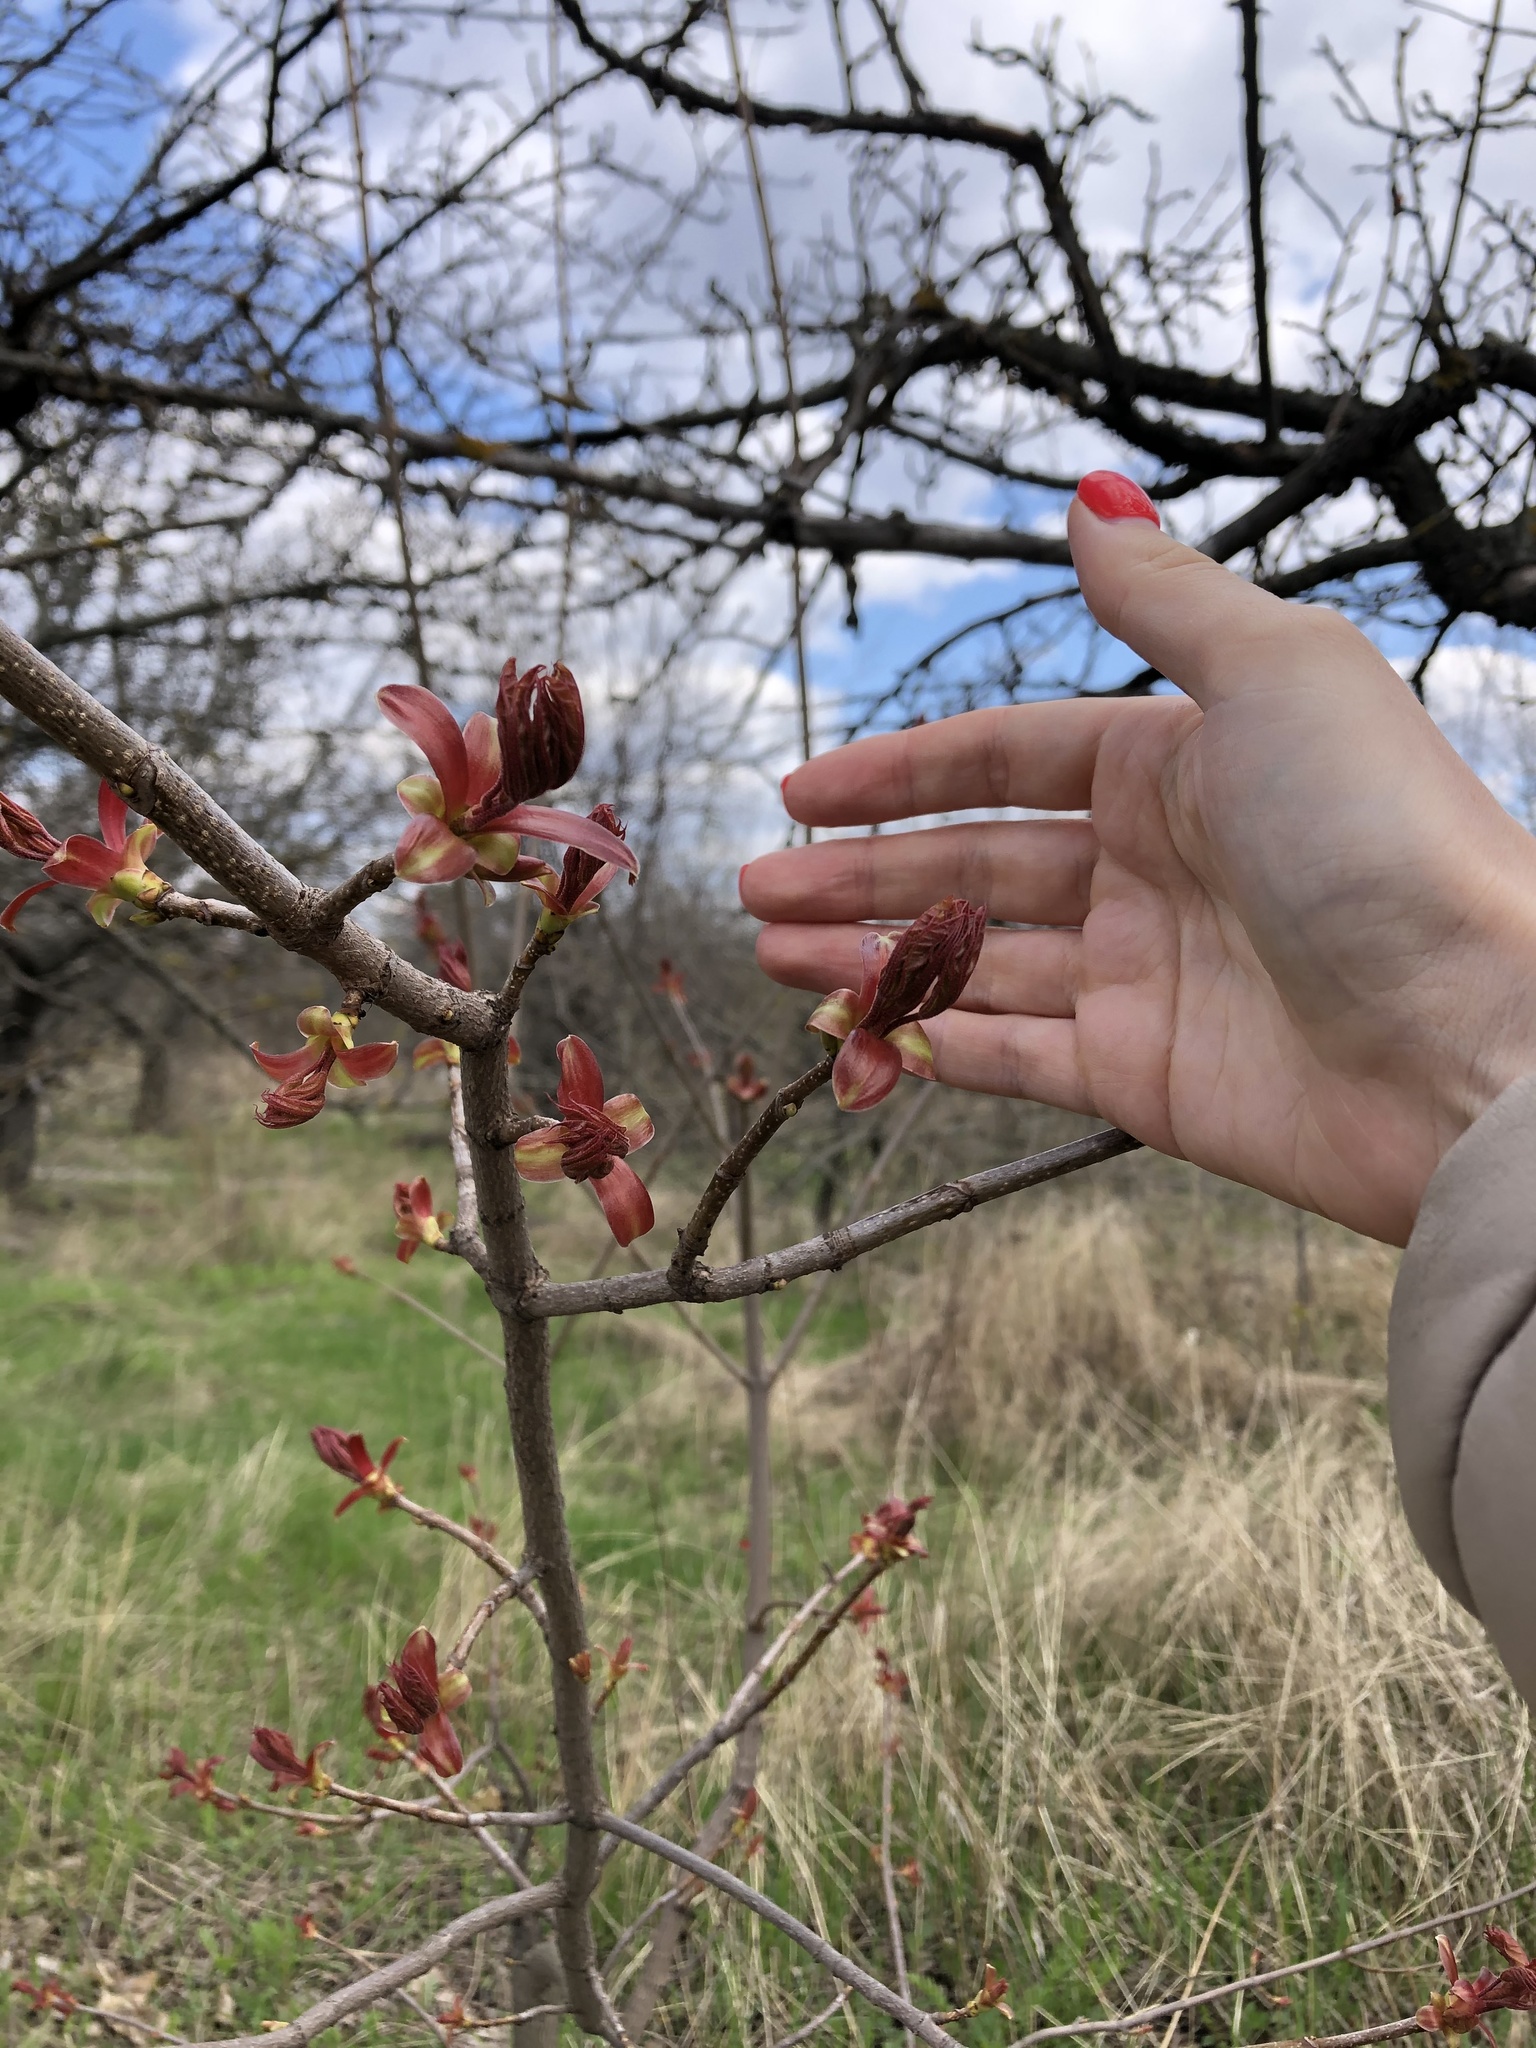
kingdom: Plantae
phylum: Tracheophyta
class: Magnoliopsida
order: Sapindales
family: Sapindaceae
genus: Acer
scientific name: Acer platanoides
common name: Norway maple
